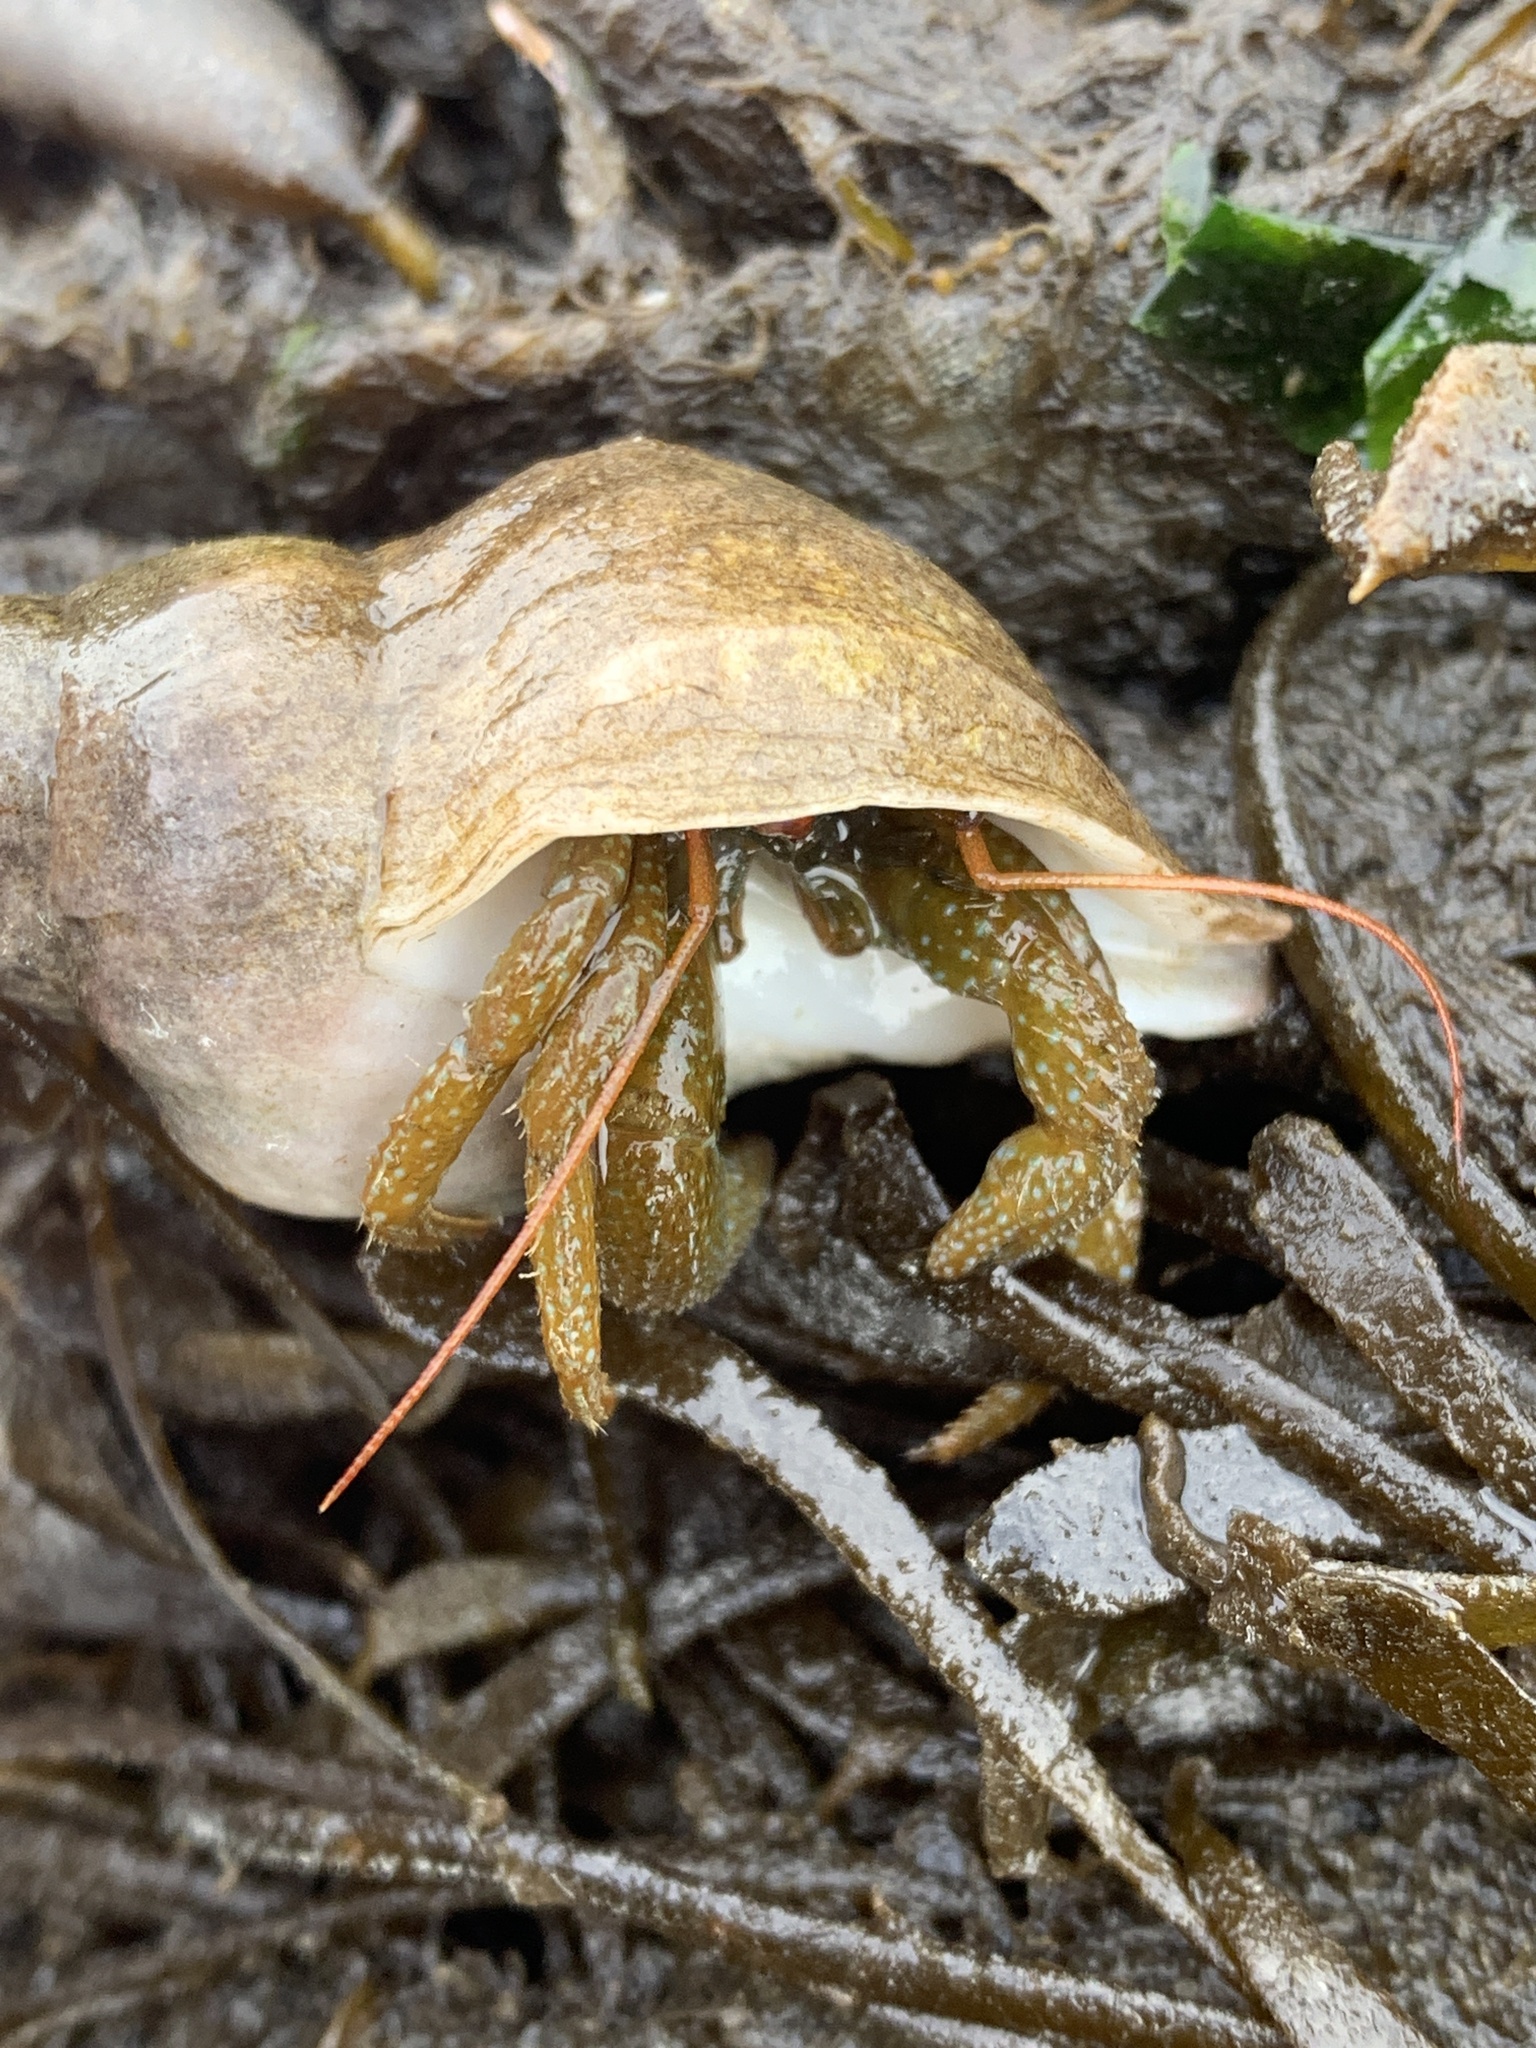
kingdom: Animalia
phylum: Arthropoda
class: Malacostraca
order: Decapoda
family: Paguridae
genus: Pagurus
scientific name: Pagurus granosimanus
